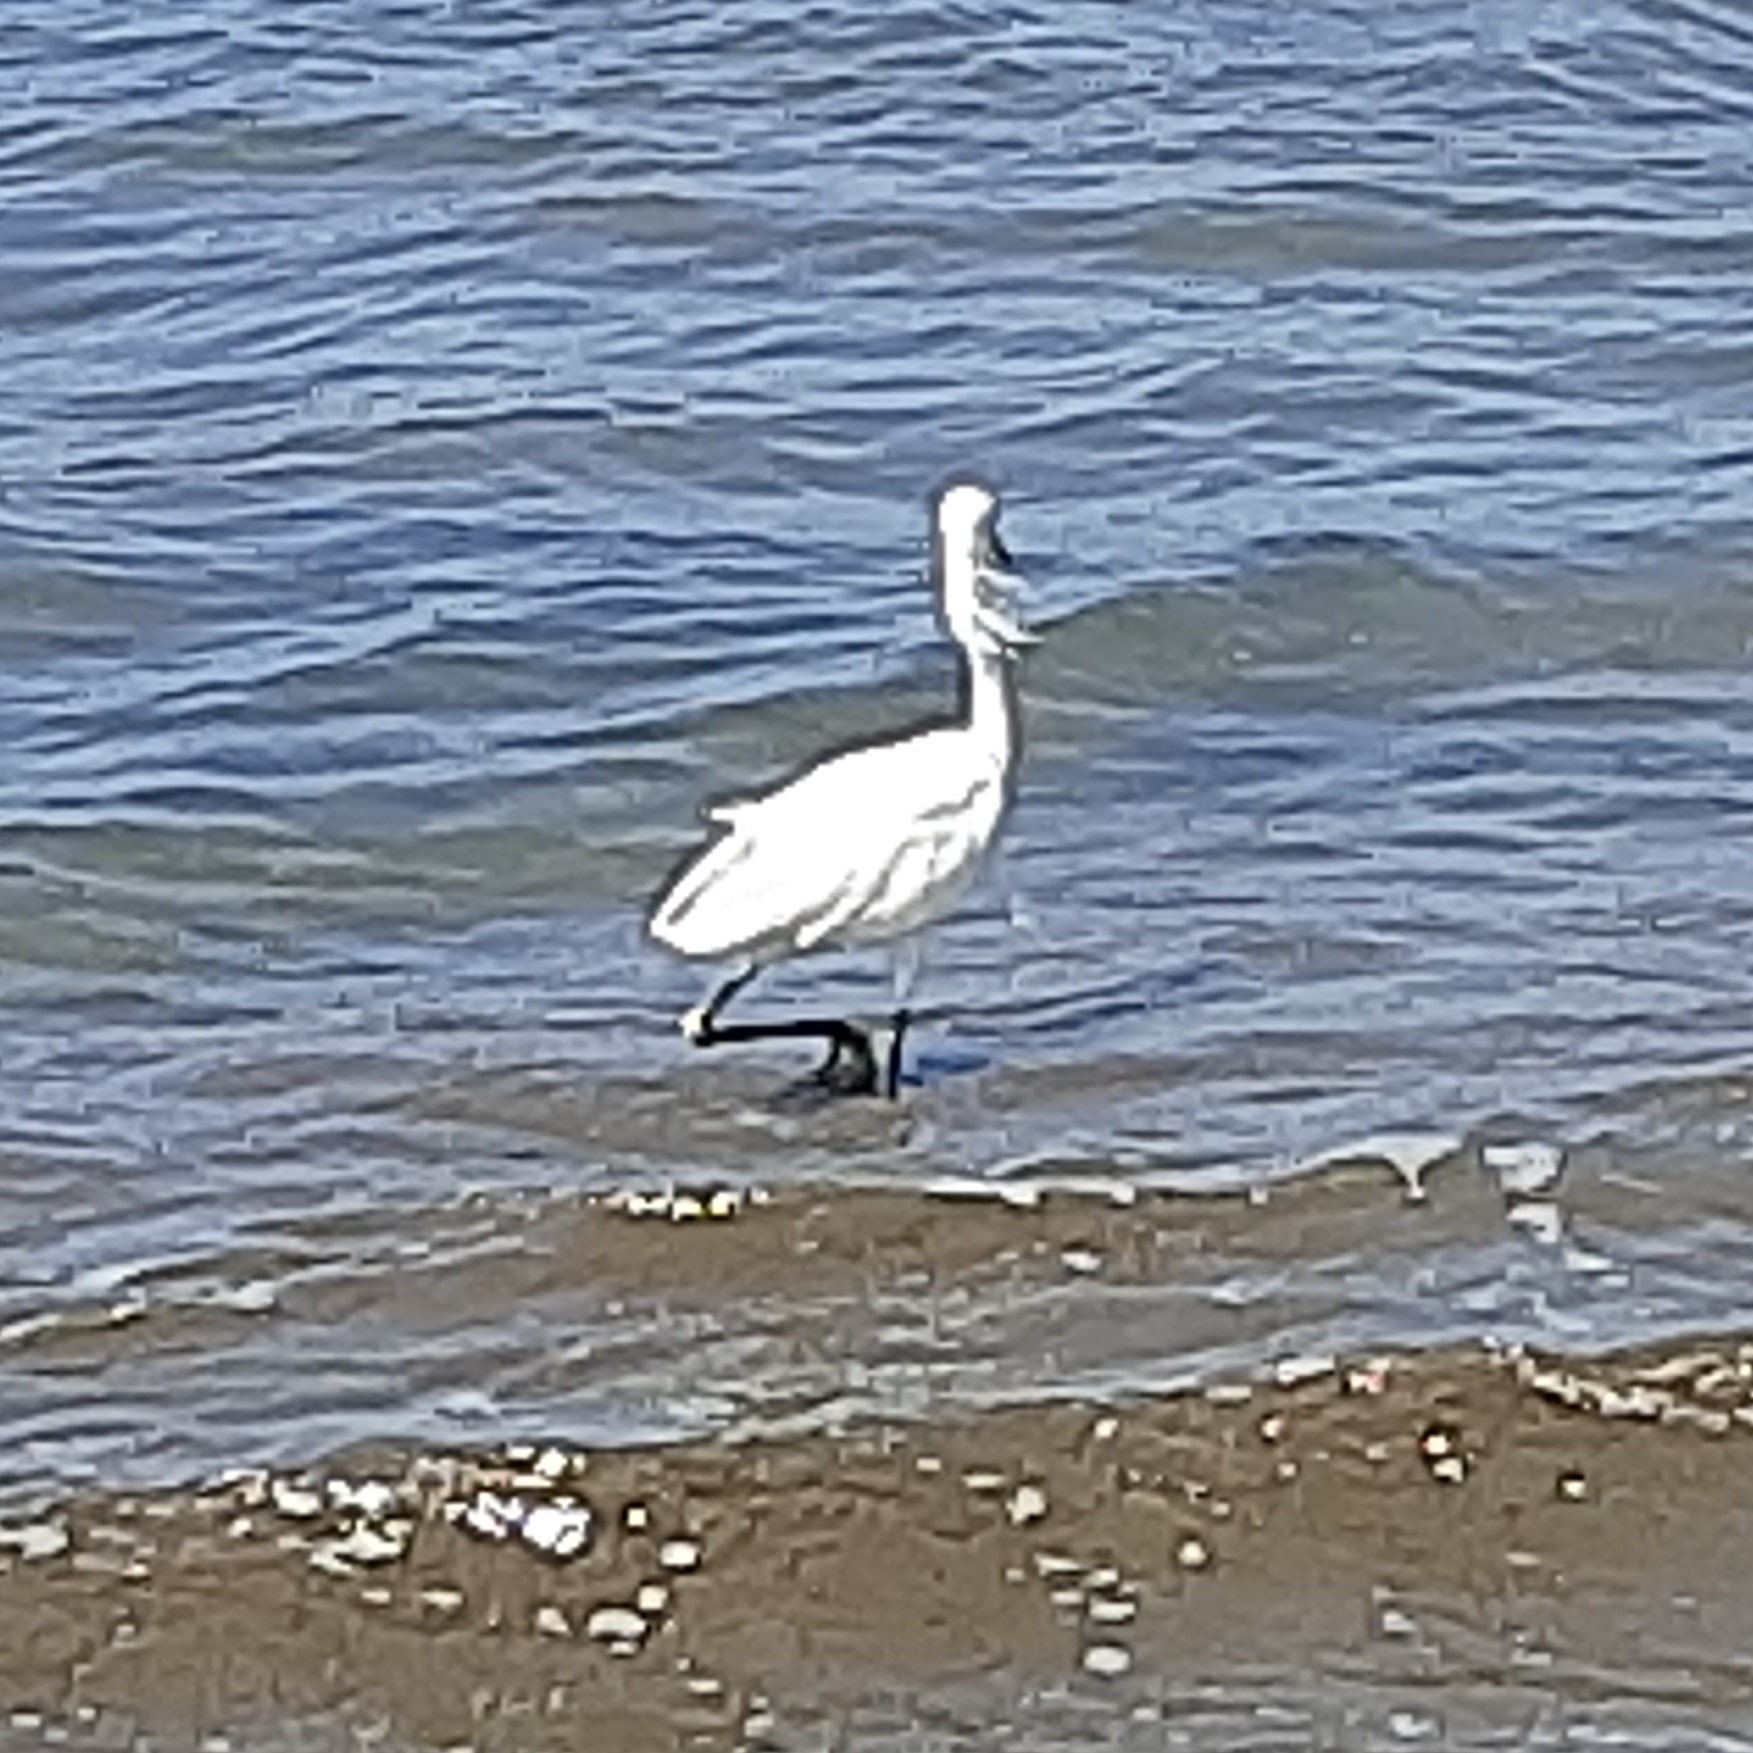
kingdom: Animalia
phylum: Chordata
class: Aves
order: Pelecaniformes
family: Ardeidae
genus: Egretta
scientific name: Egretta thula
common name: Snowy egret
